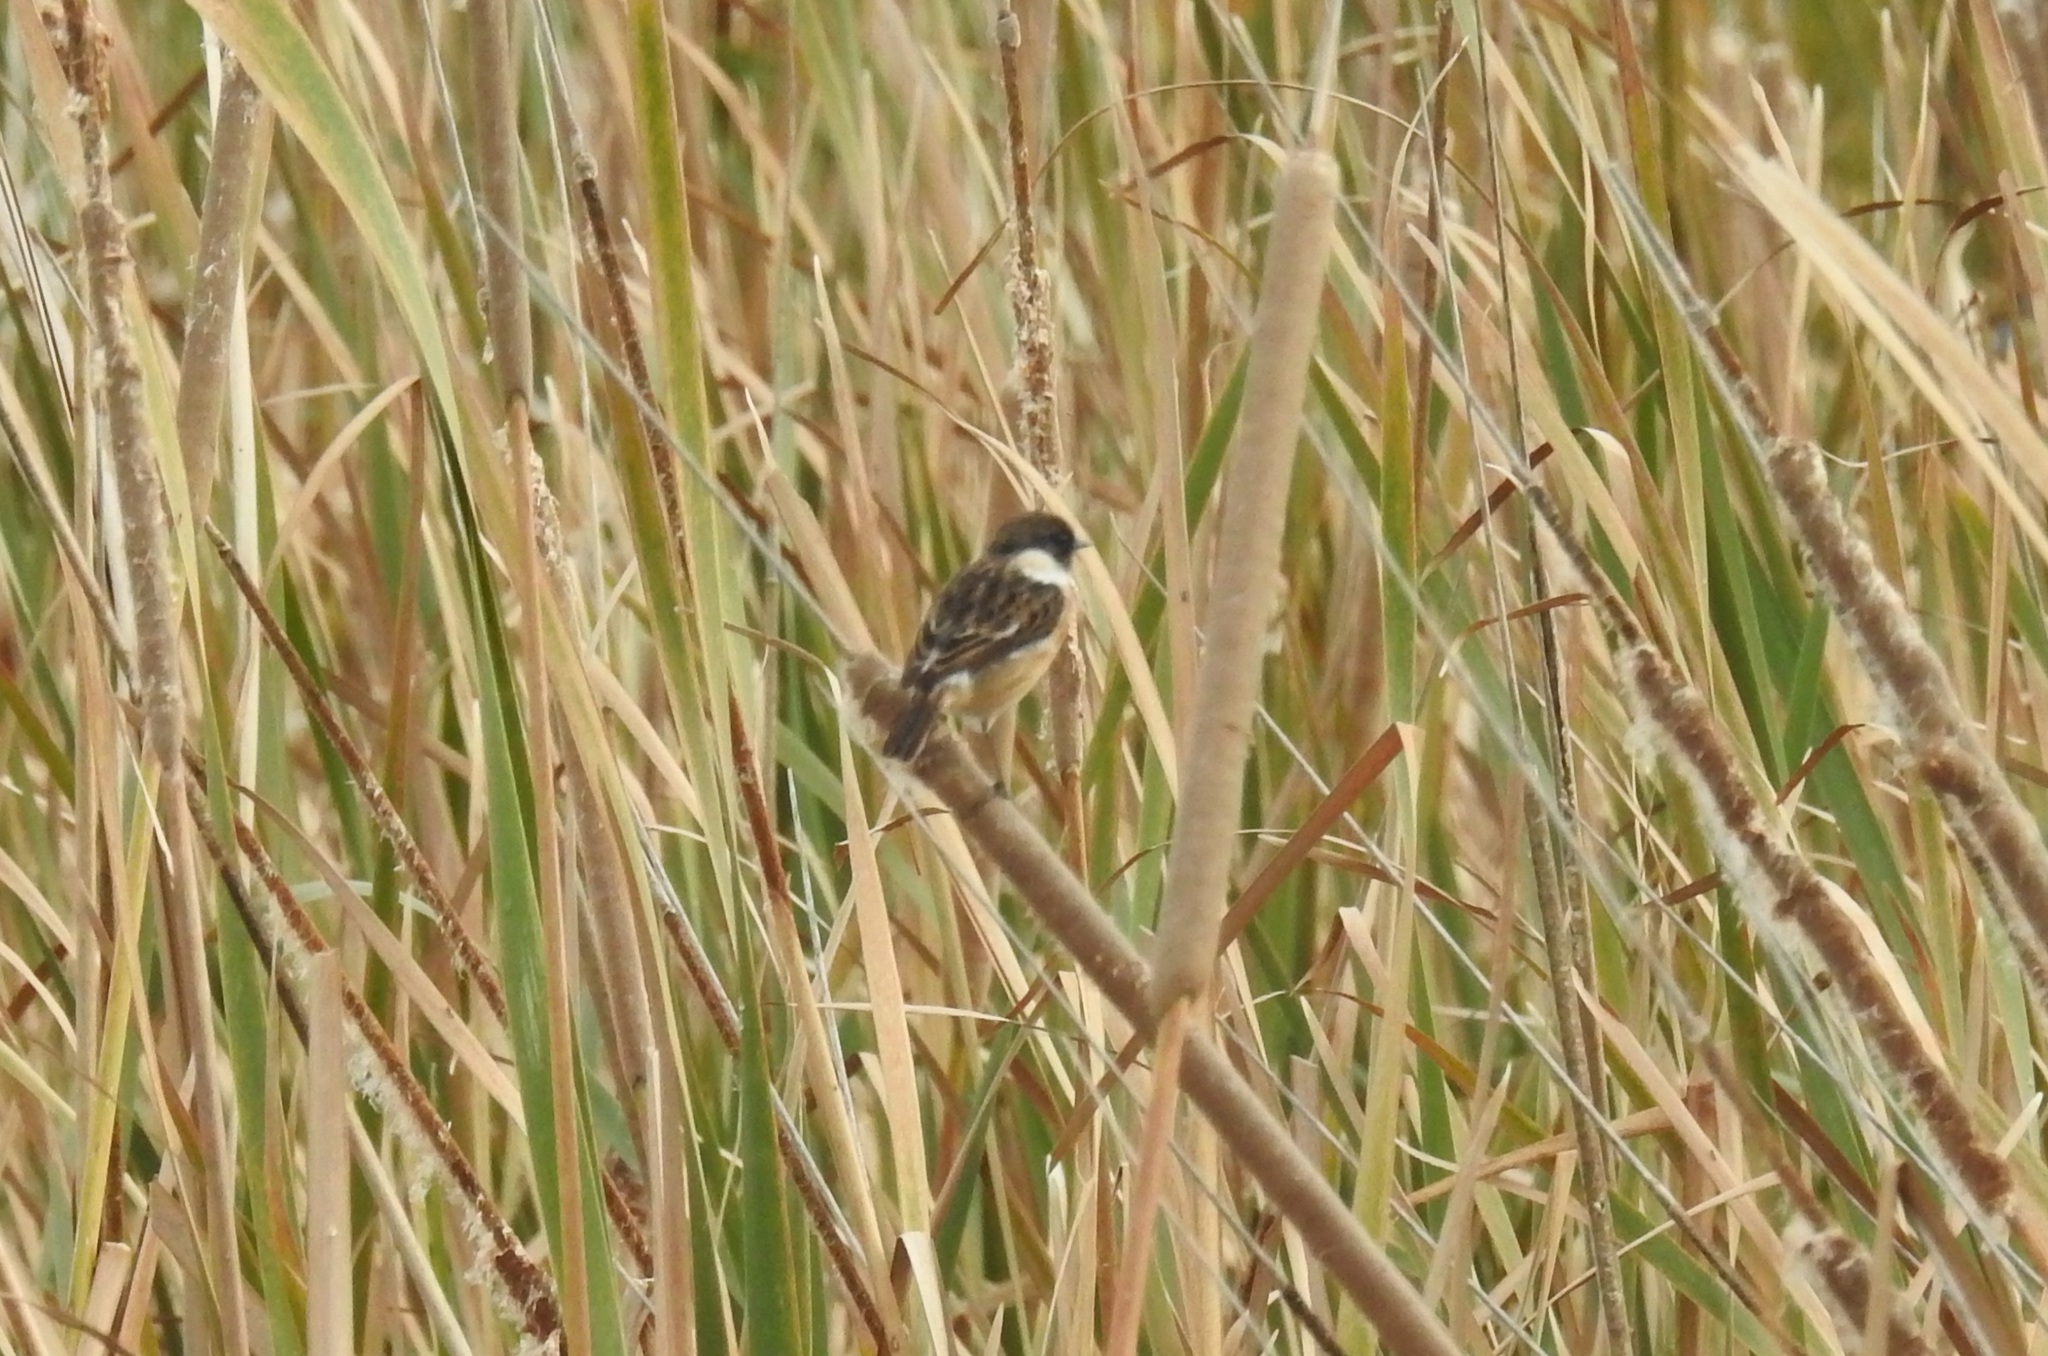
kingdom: Animalia
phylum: Chordata
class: Aves
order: Passeriformes
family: Muscicapidae
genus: Saxicola
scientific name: Saxicola rubicola
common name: European stonechat
